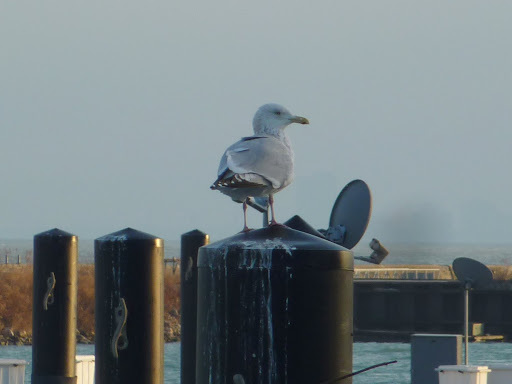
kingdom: Animalia
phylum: Chordata
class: Aves
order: Charadriiformes
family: Laridae
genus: Larus
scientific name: Larus argentatus
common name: Herring gull
